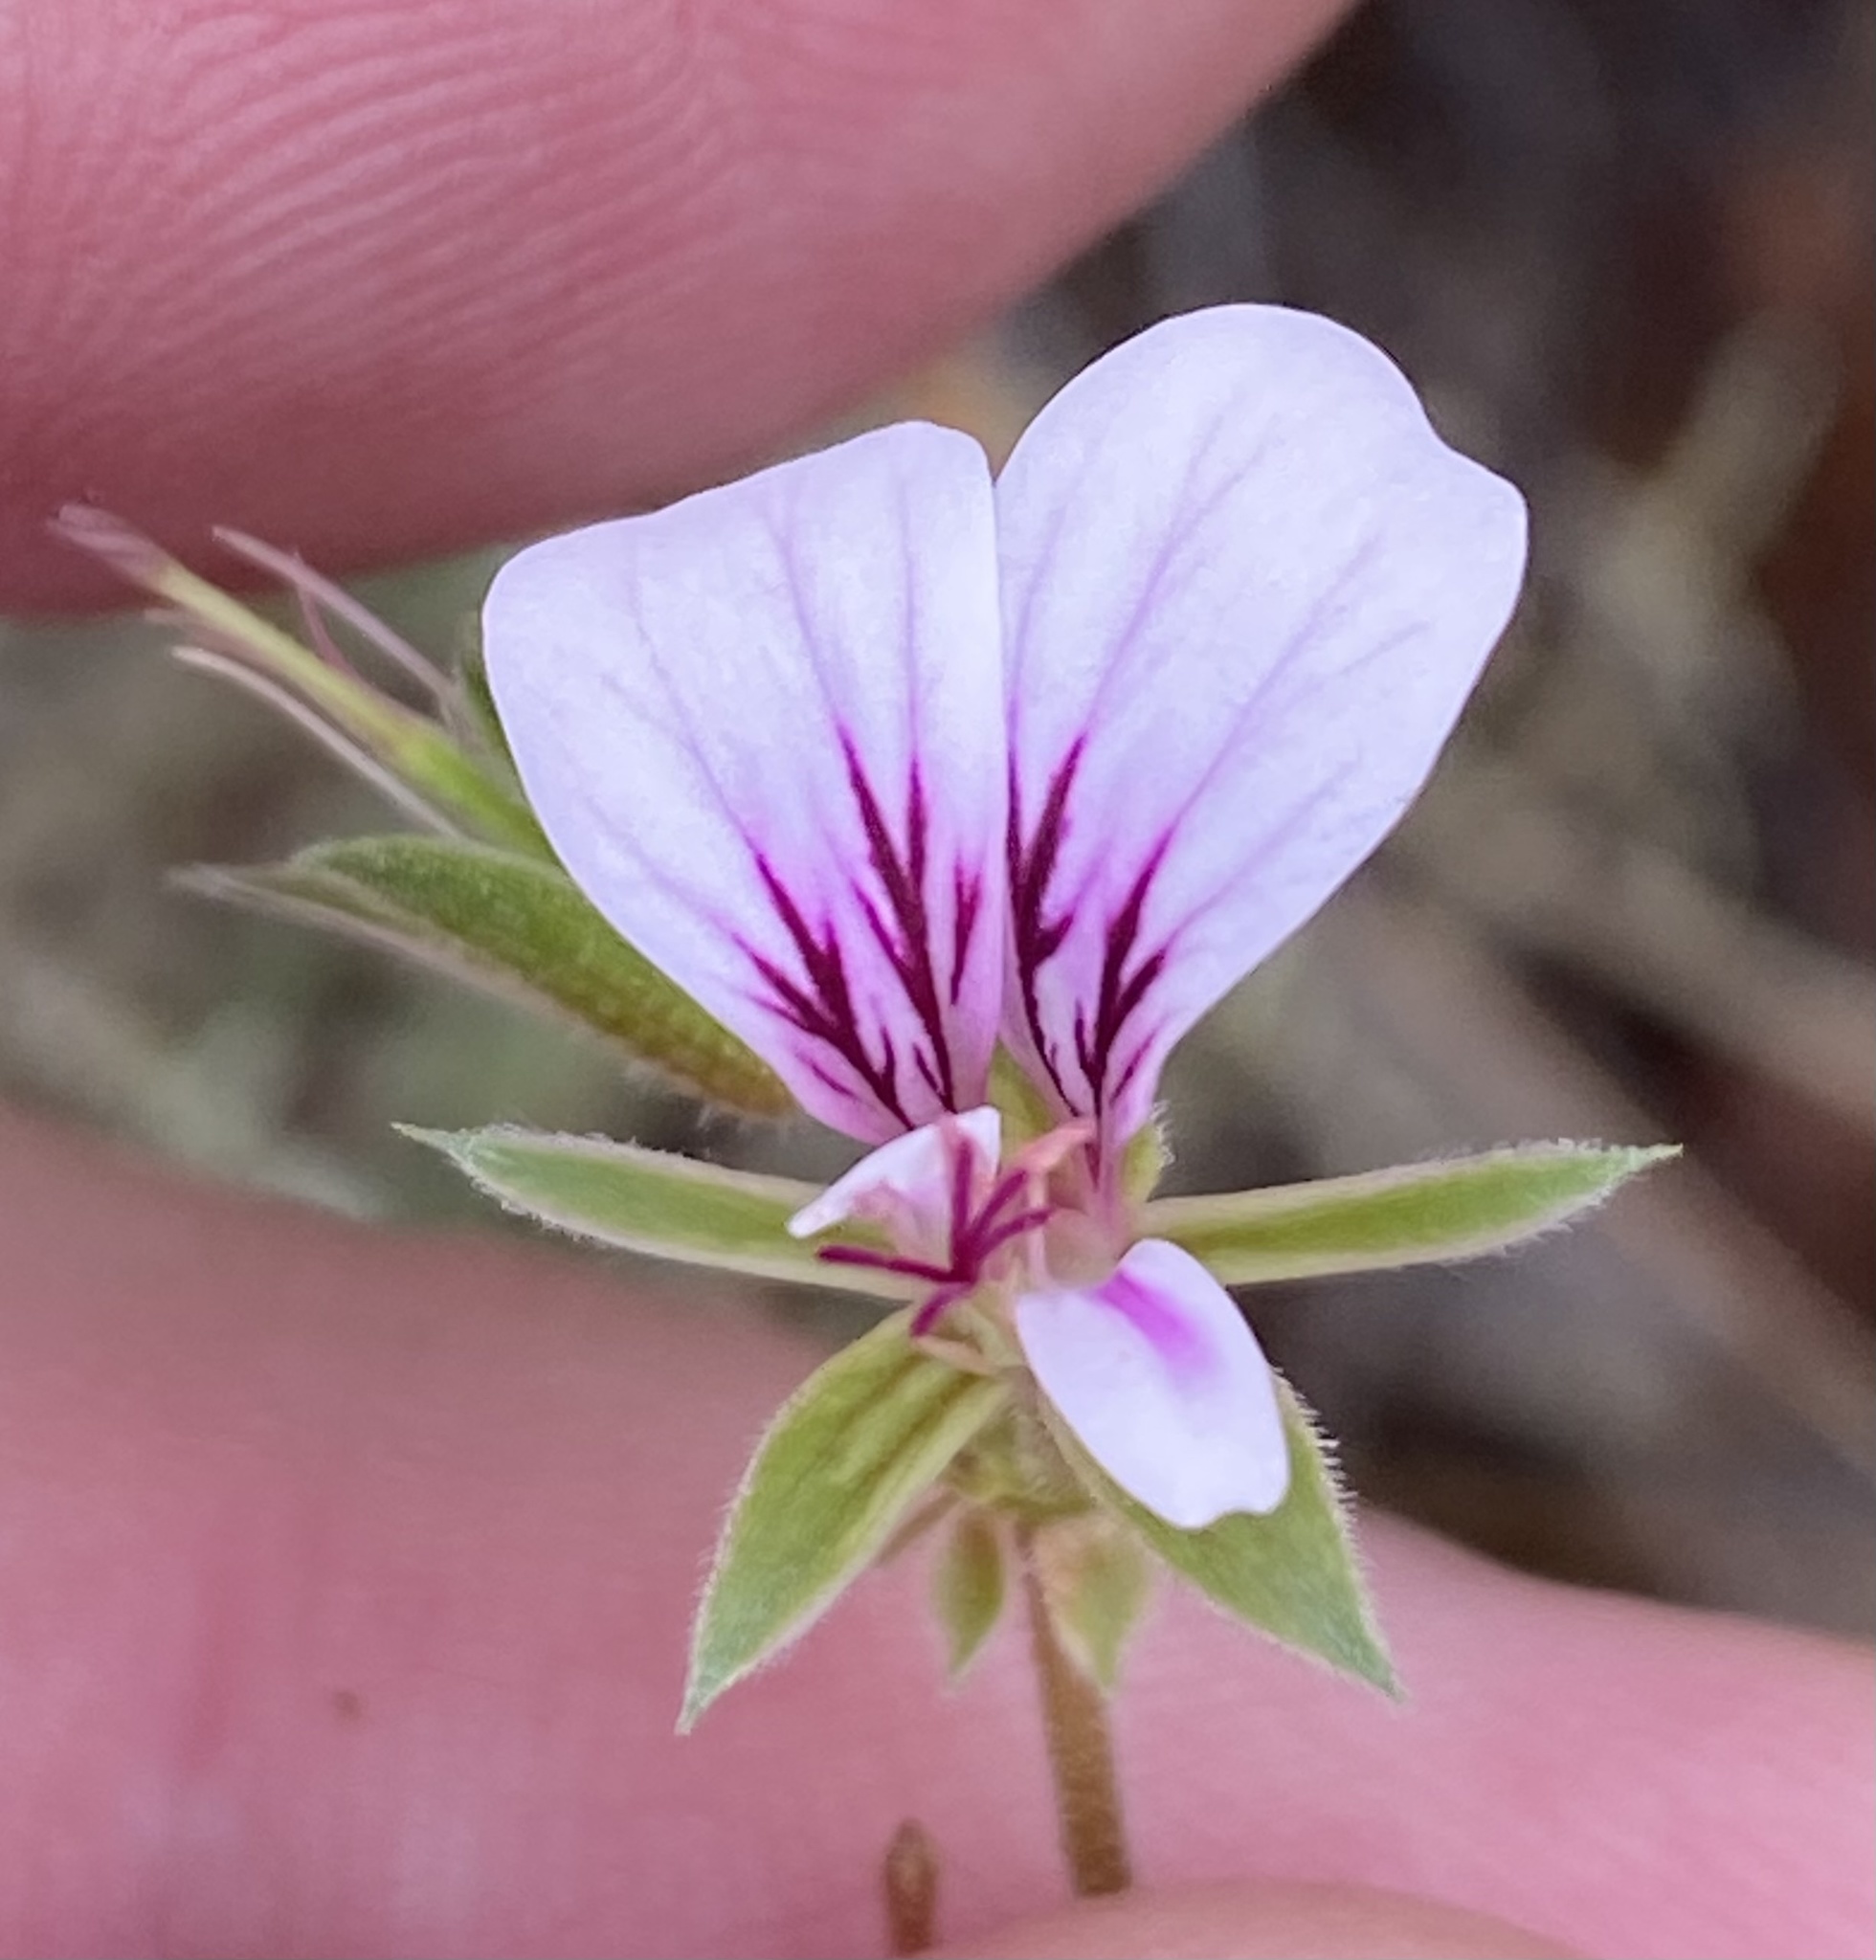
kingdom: Plantae
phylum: Tracheophyta
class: Magnoliopsida
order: Geraniales
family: Geraniaceae
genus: Pelargonium
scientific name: Pelargonium candicans
